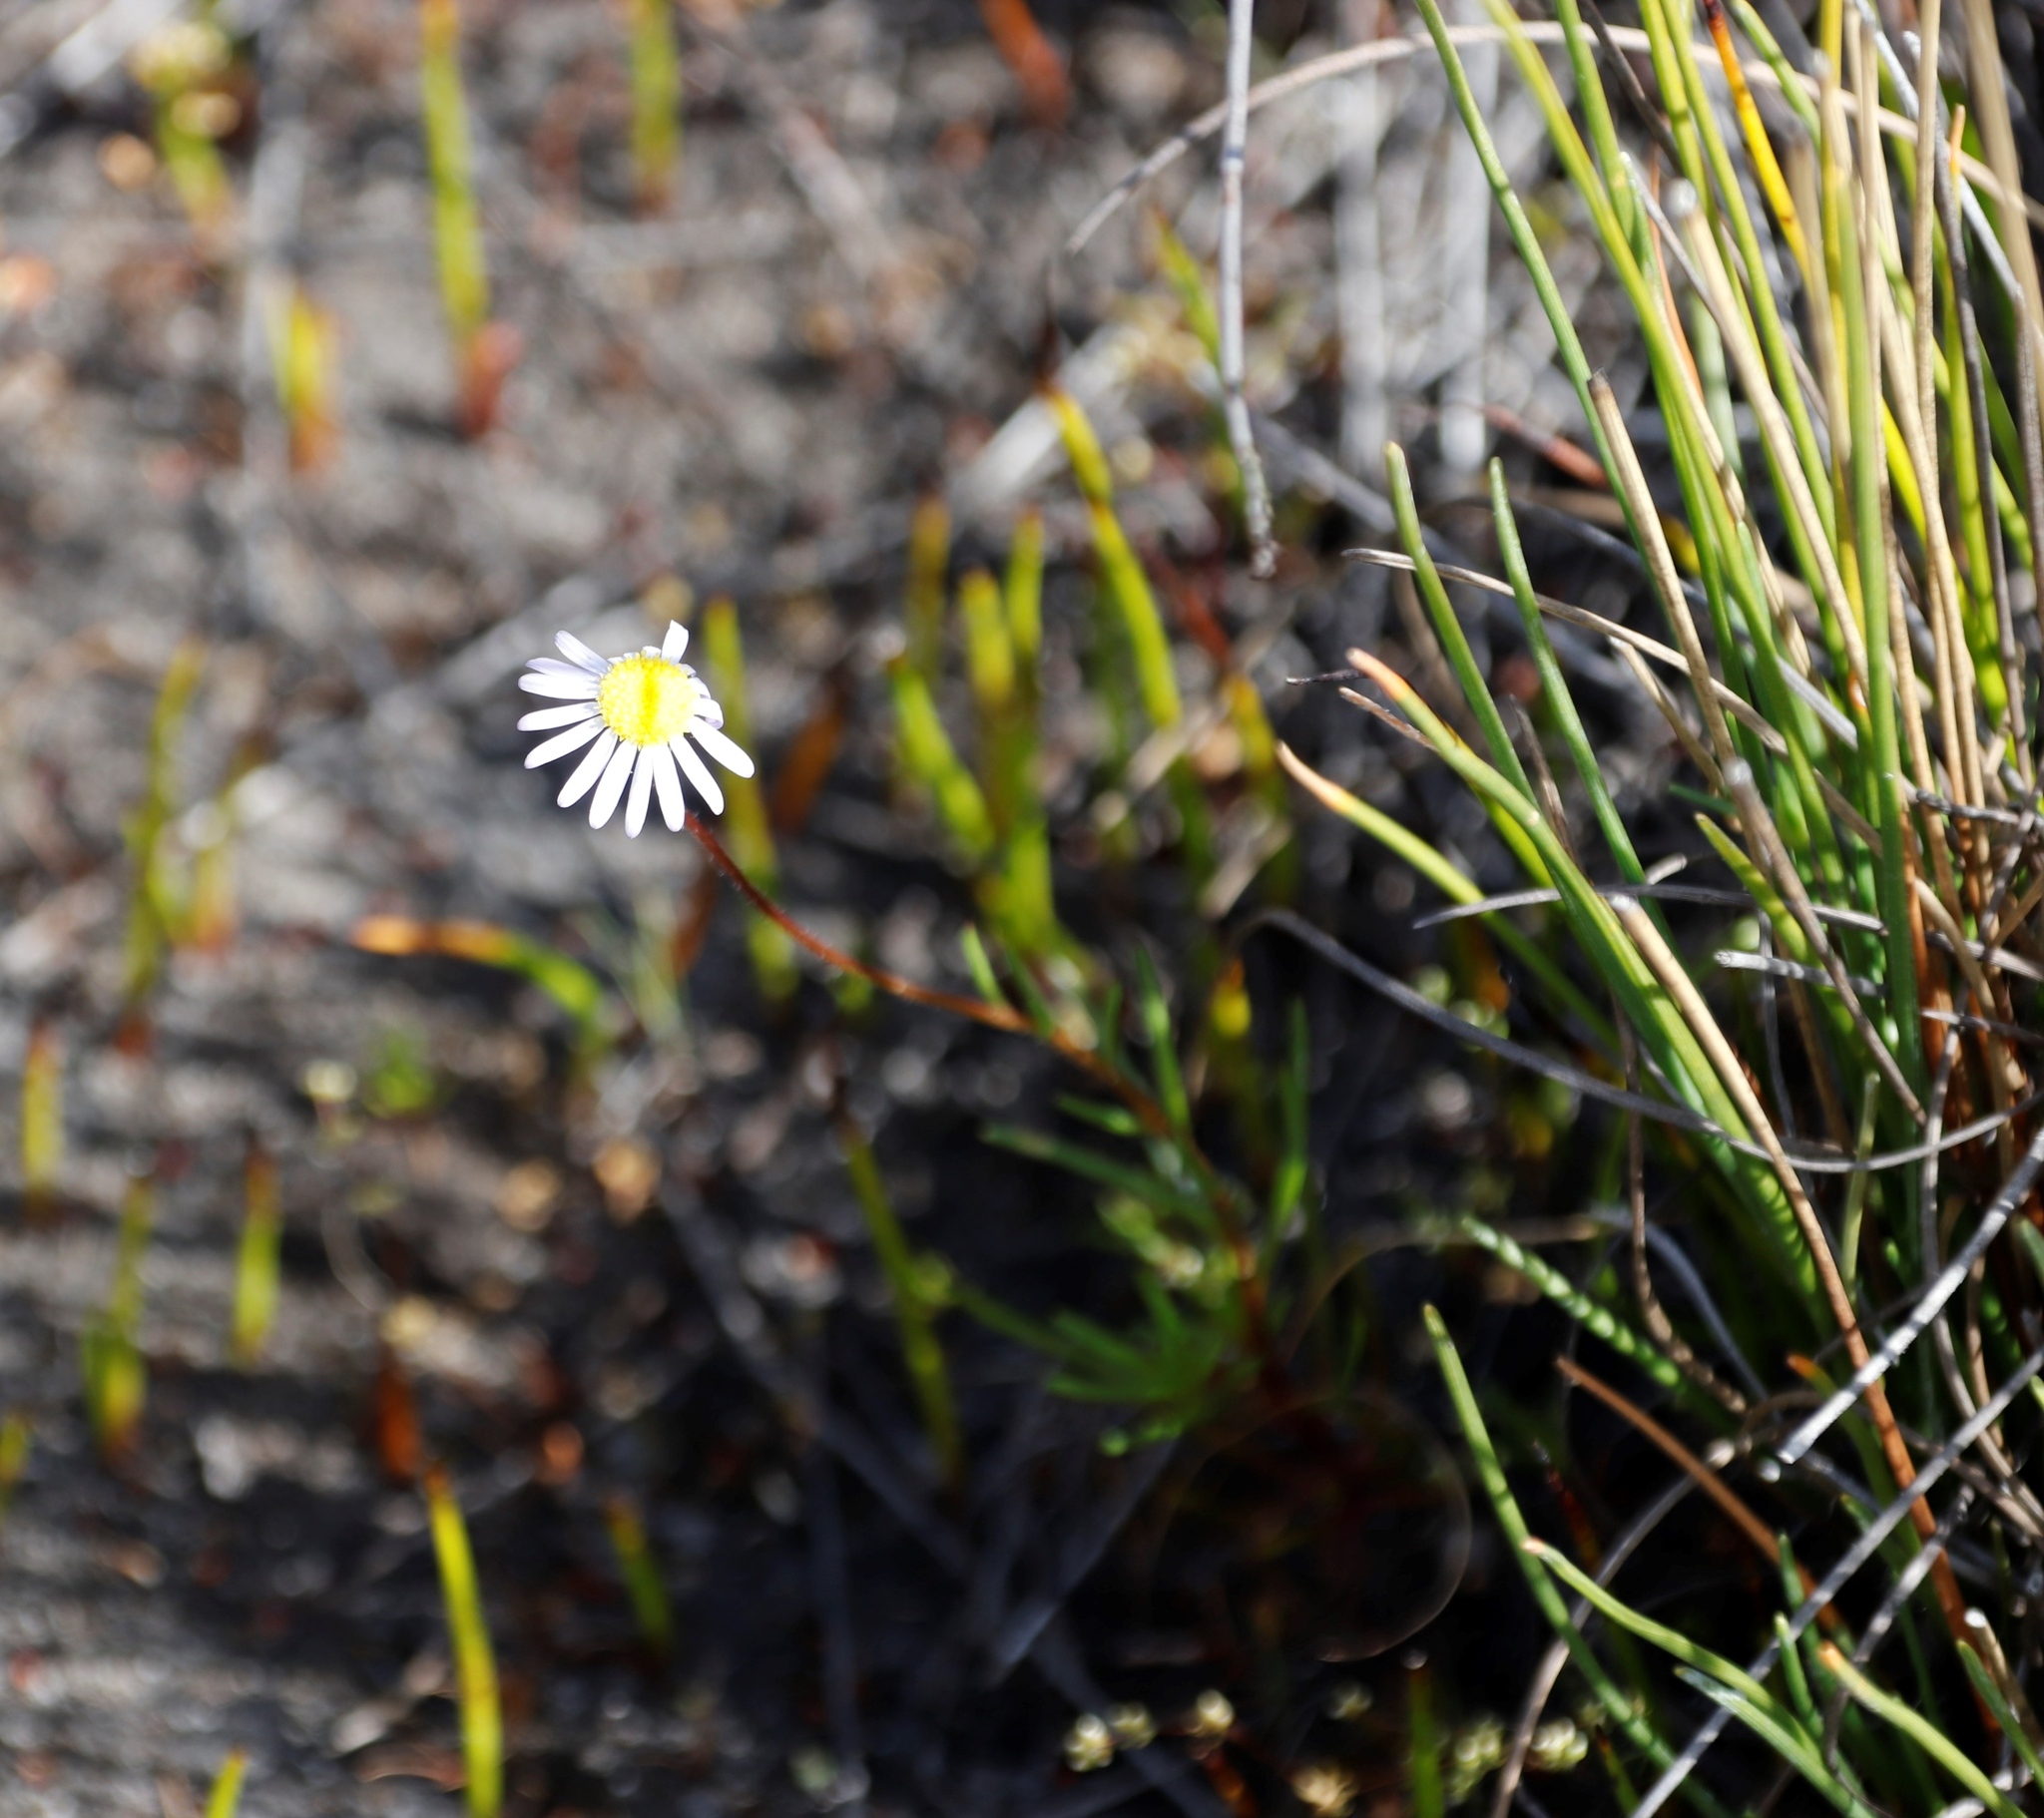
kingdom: Plantae
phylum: Tracheophyta
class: Magnoliopsida
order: Asterales
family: Asteraceae
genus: Felicia
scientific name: Felicia tenella
